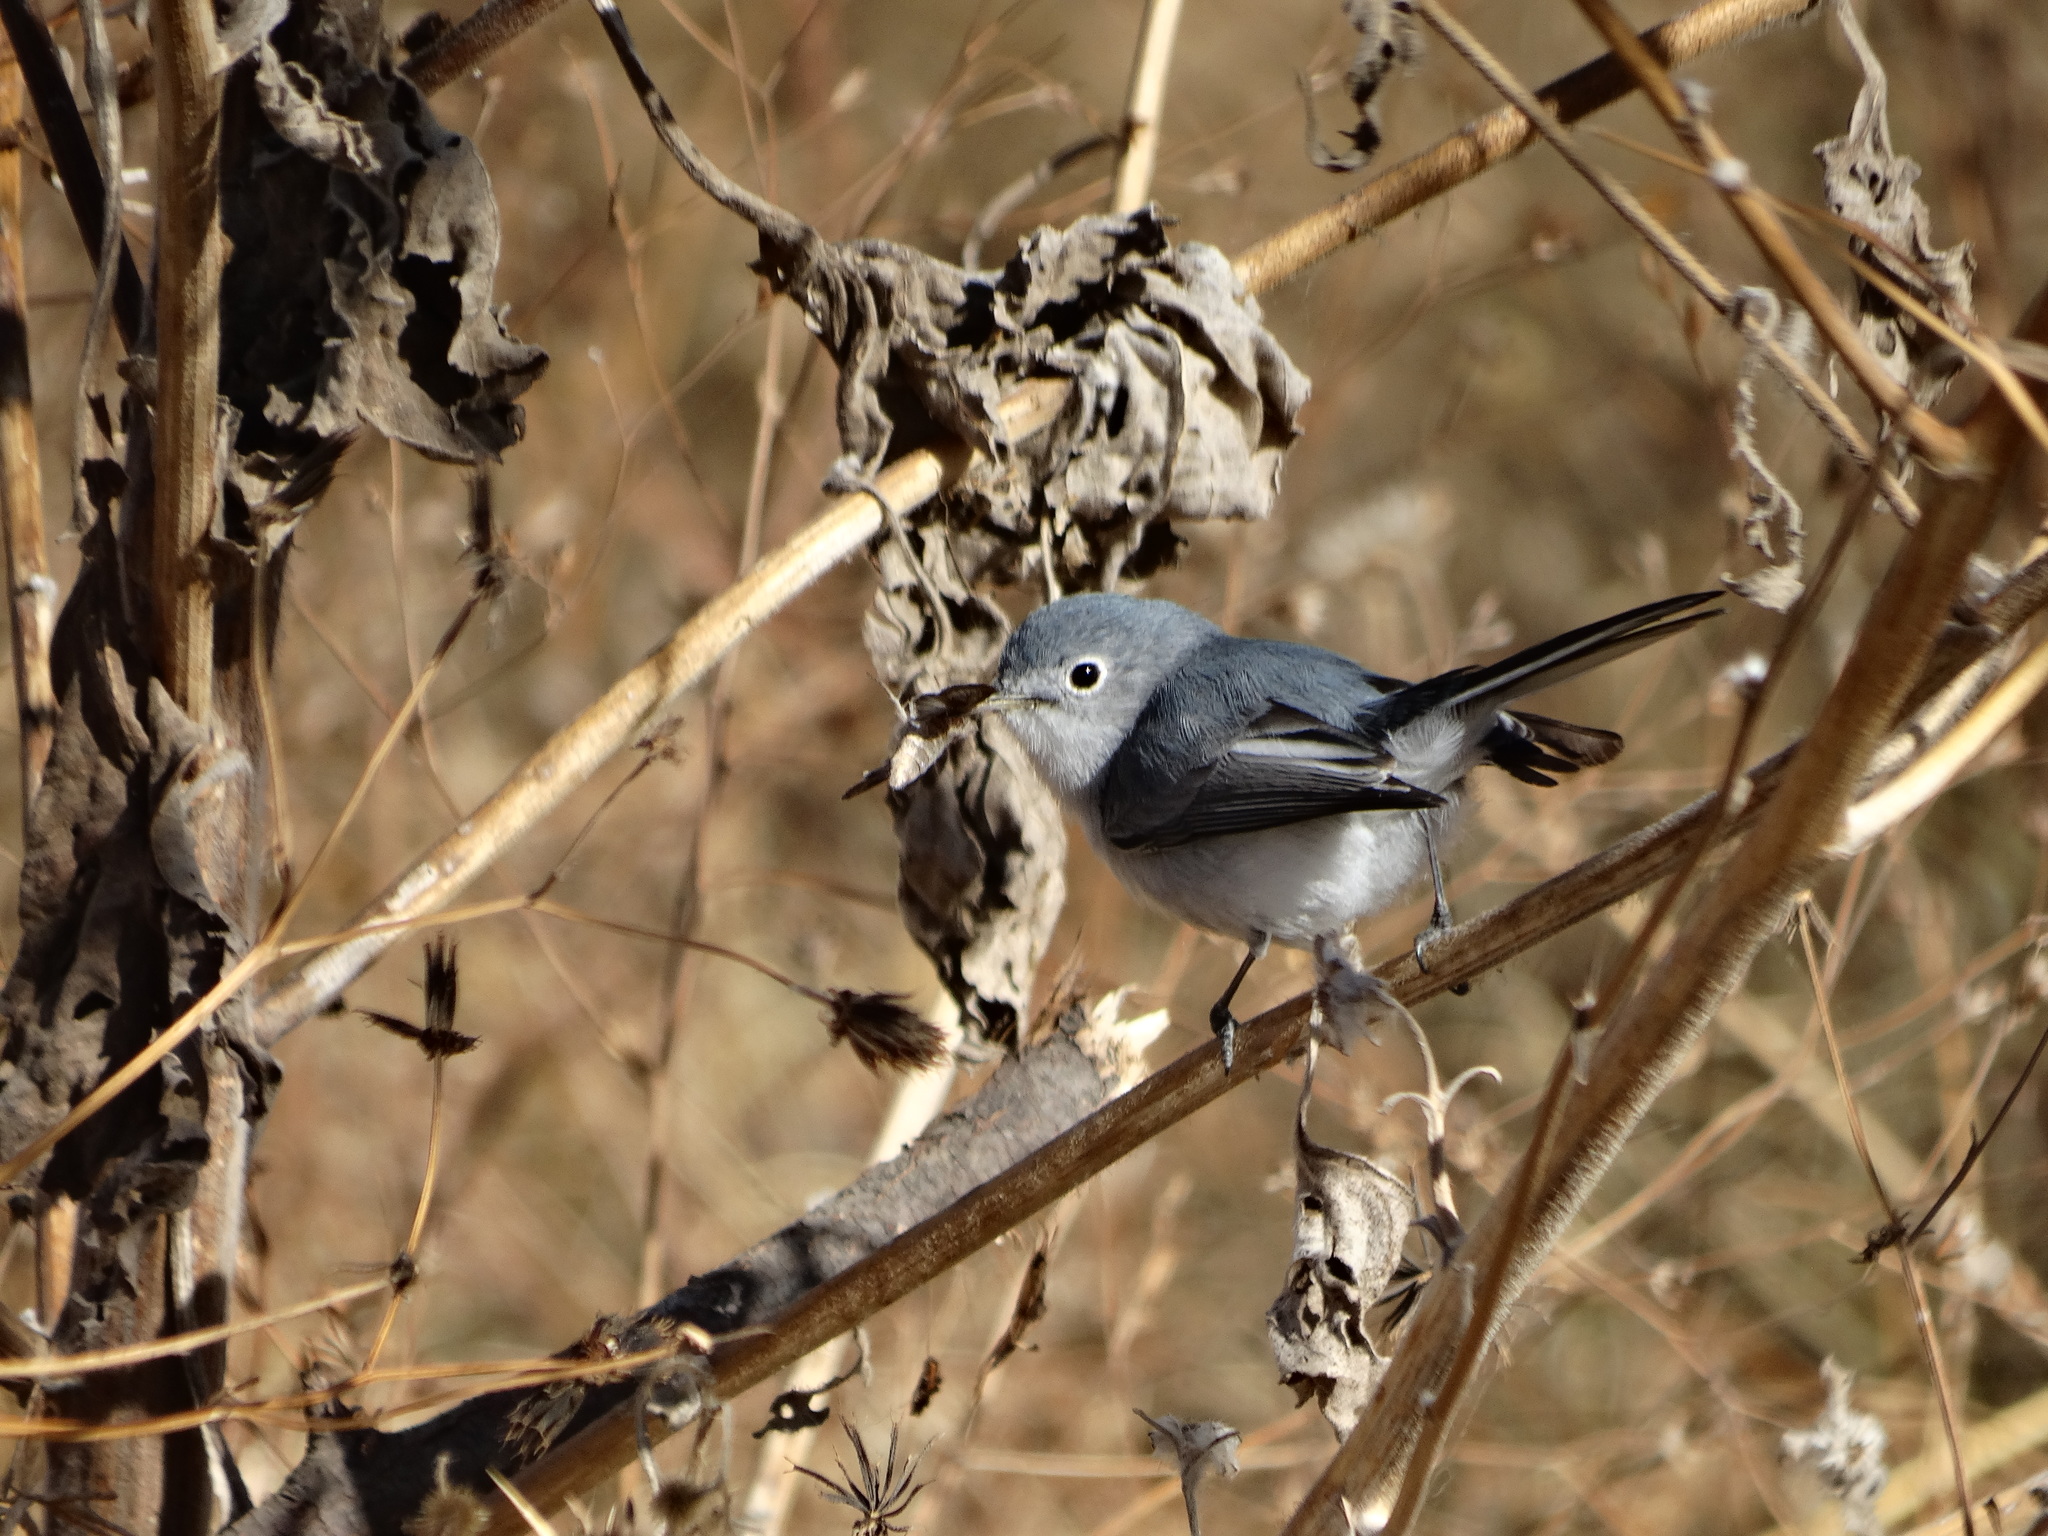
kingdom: Animalia
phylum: Chordata
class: Aves
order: Passeriformes
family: Polioptilidae
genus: Polioptila
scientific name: Polioptila caerulea
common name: Blue-gray gnatcatcher
